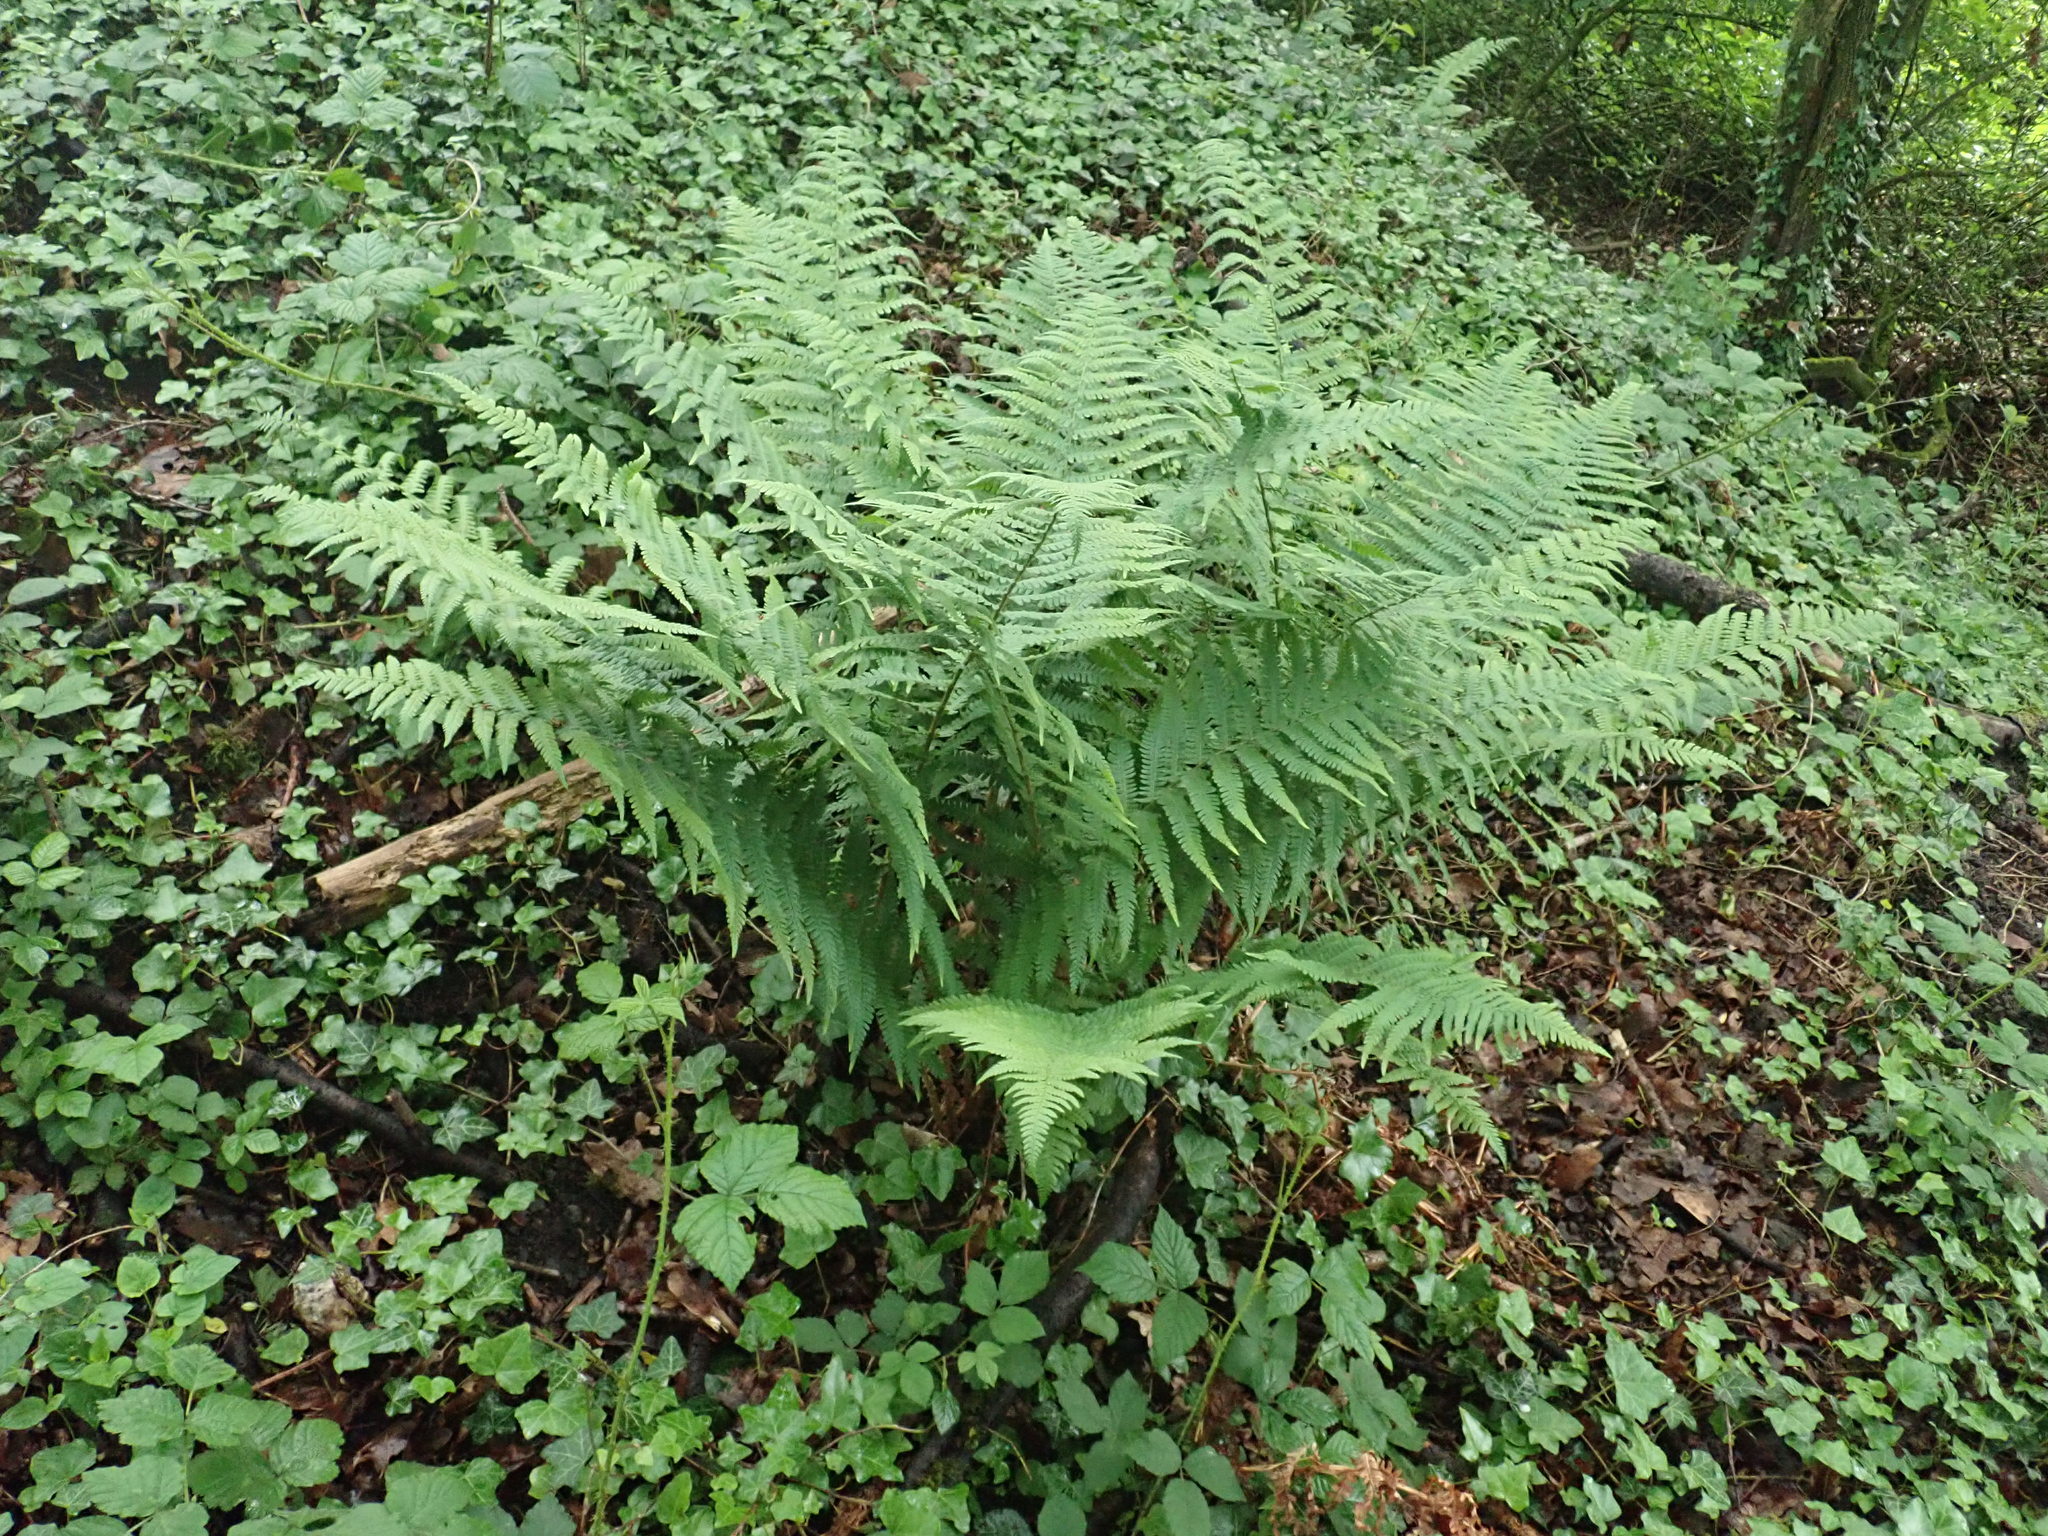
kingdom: Plantae
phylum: Tracheophyta
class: Polypodiopsida
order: Polypodiales
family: Dryopteridaceae
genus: Dryopteris
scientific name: Dryopteris filix-mas
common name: Male fern
